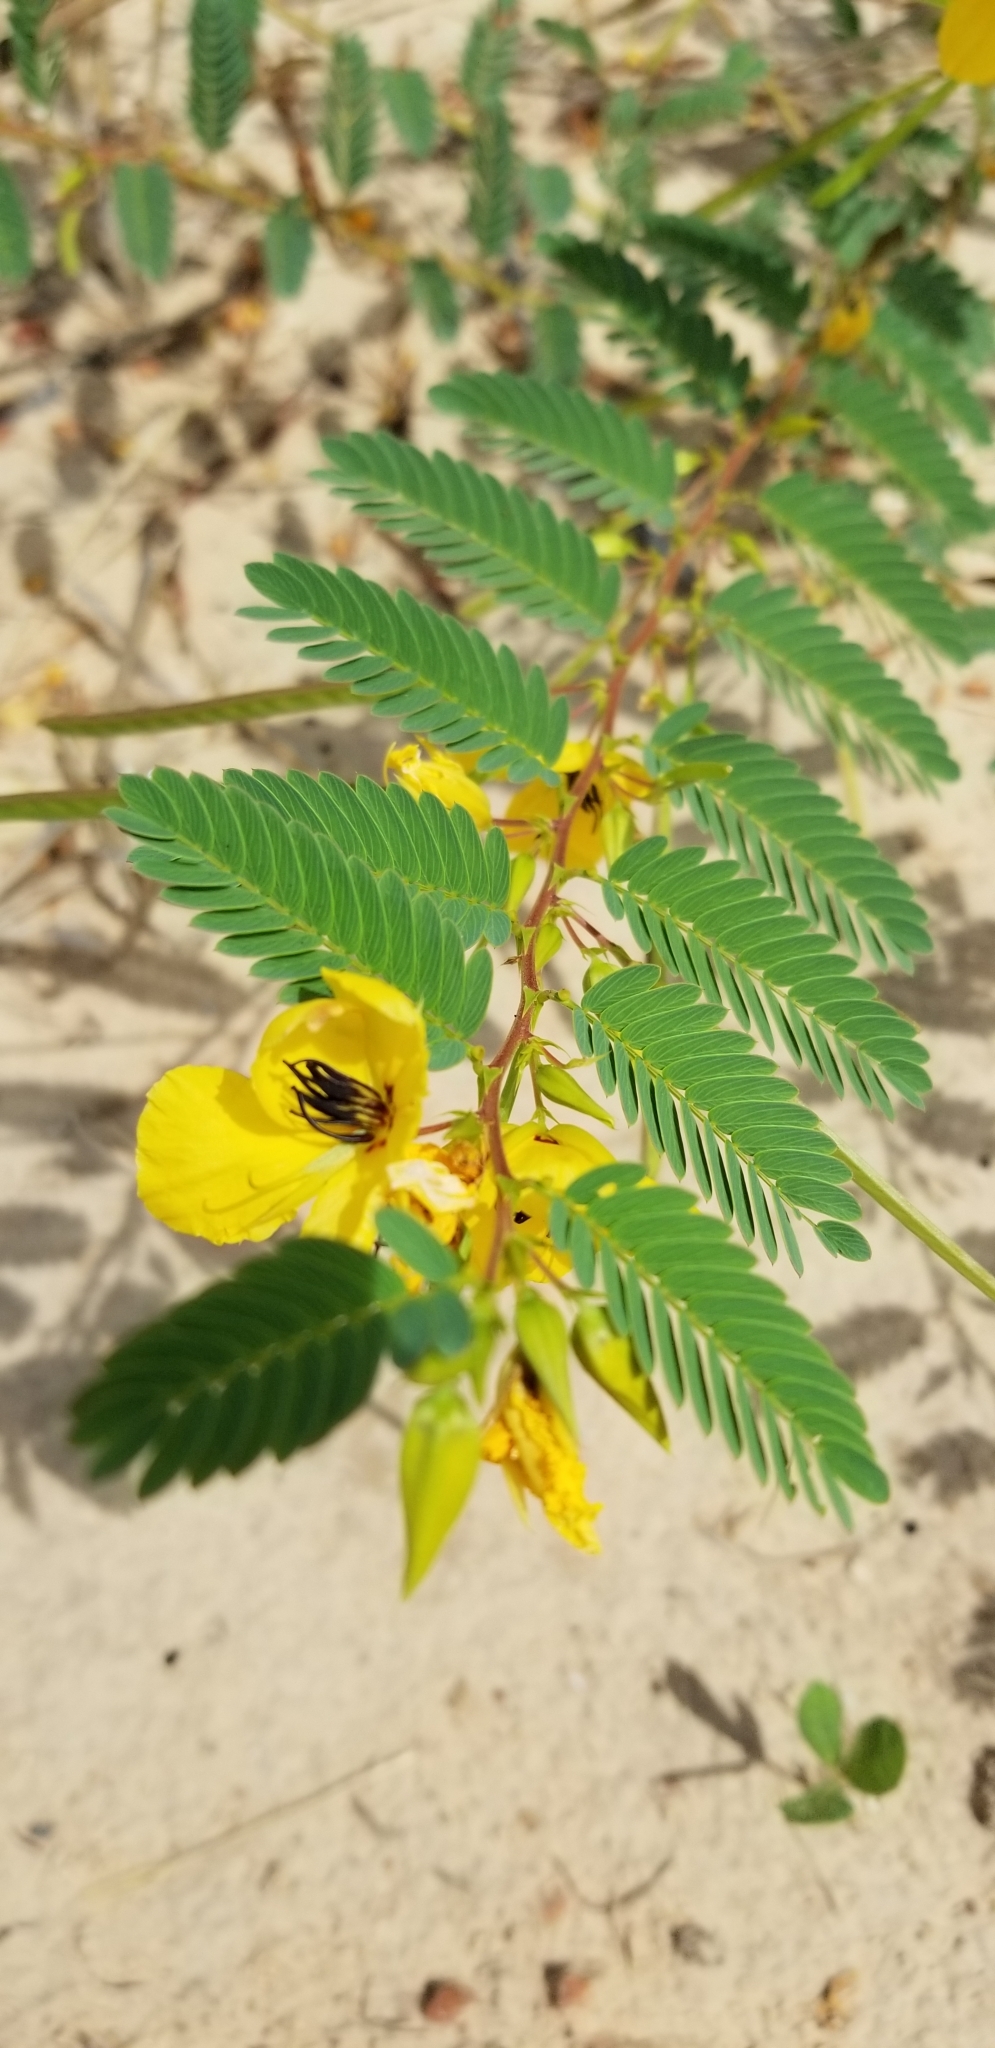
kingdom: Plantae
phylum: Tracheophyta
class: Magnoliopsida
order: Fabales
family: Fabaceae
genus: Chamaecrista
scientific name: Chamaecrista fasciculata
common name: Golden cassia
